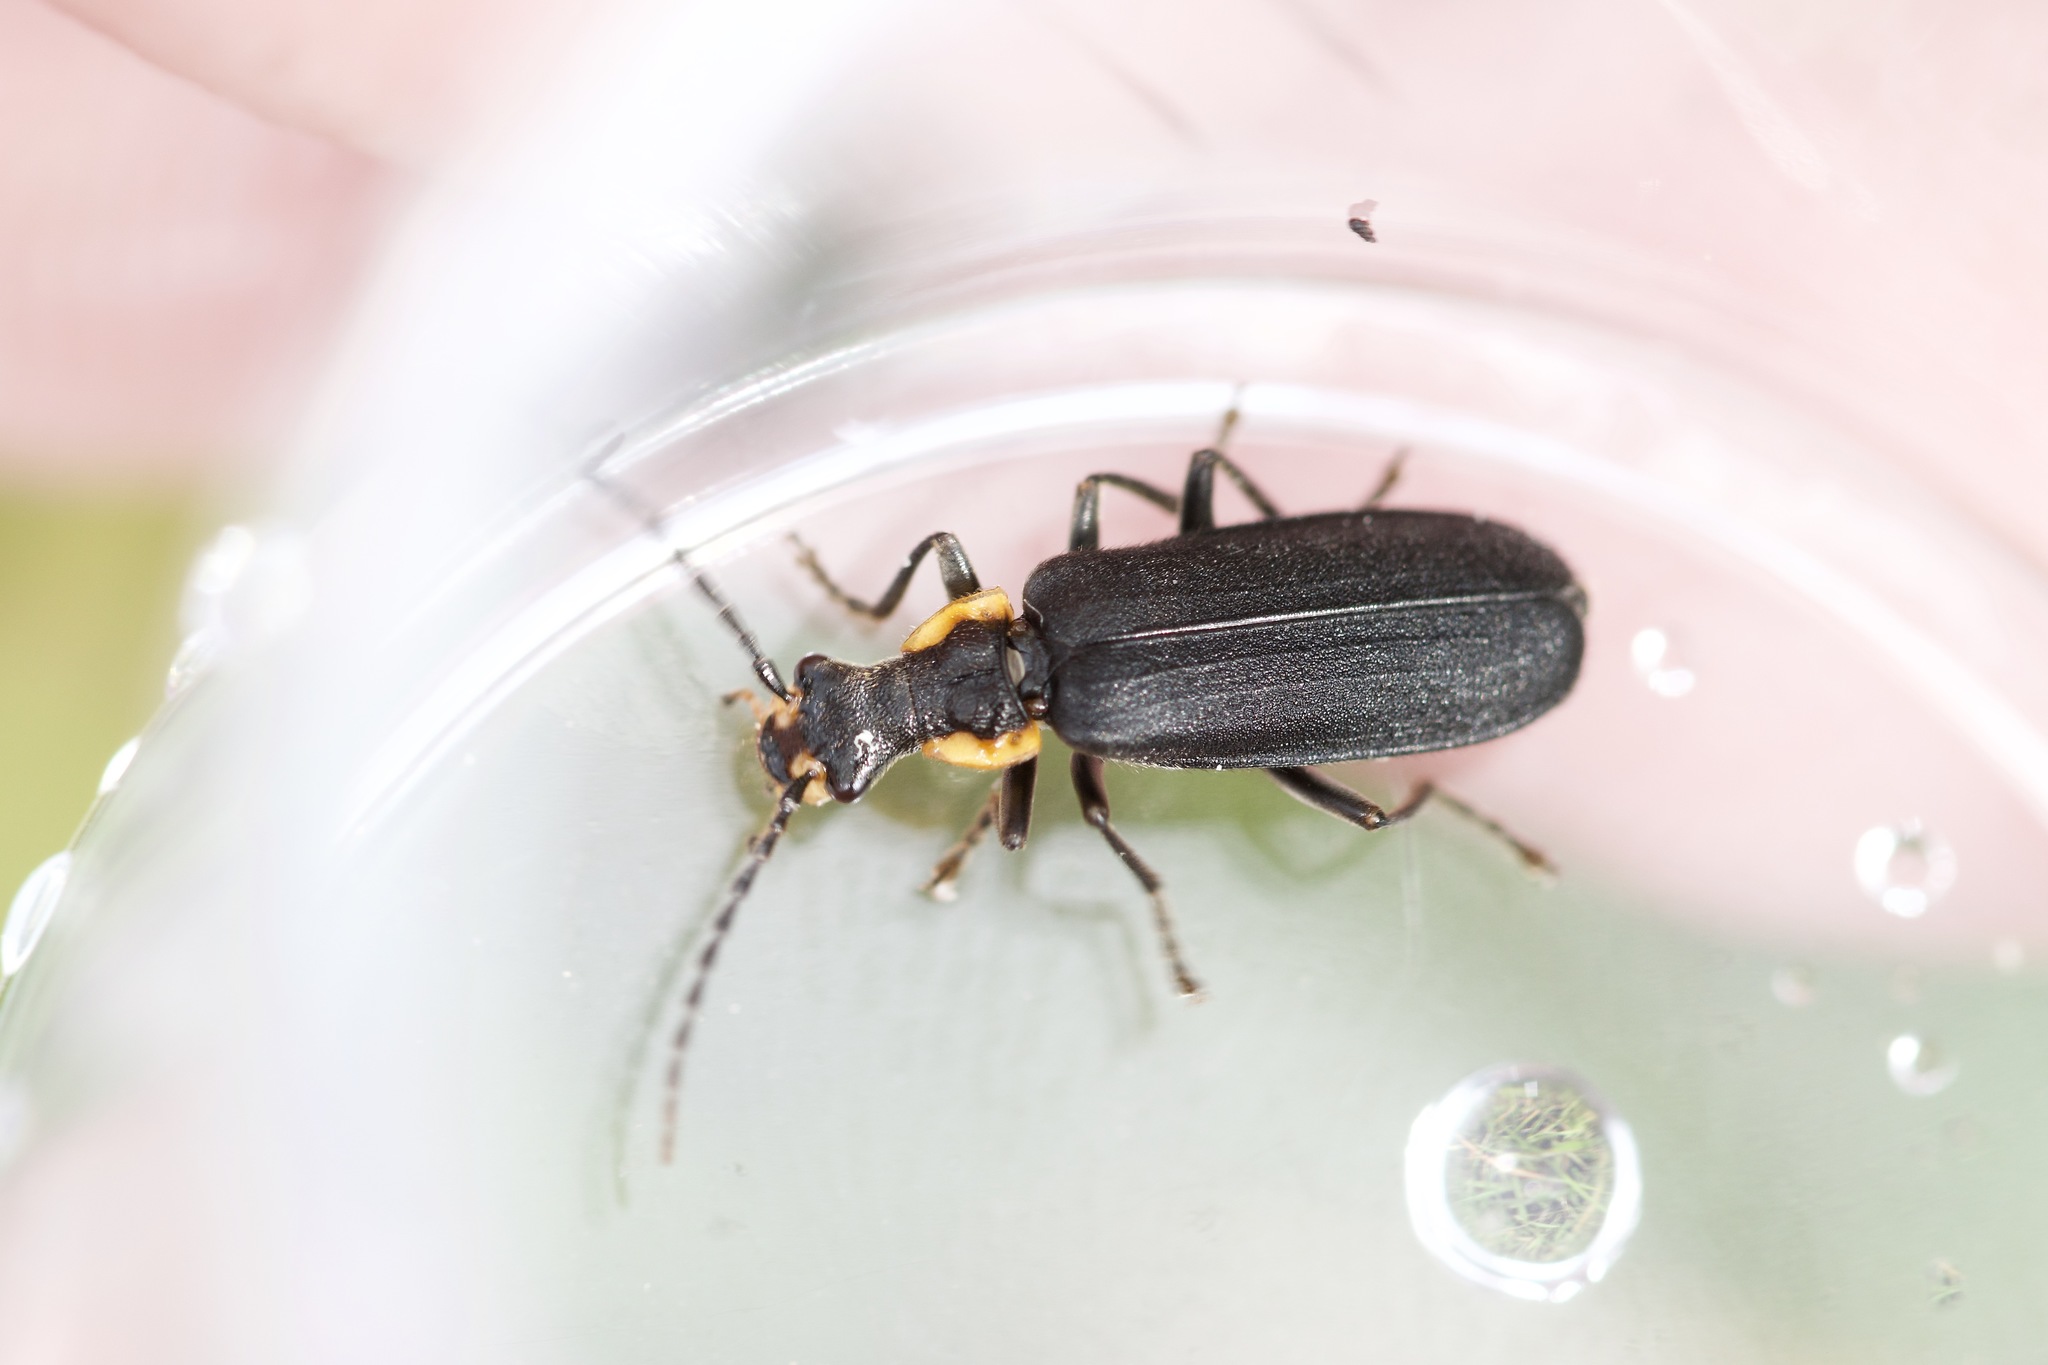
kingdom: Animalia
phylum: Arthropoda
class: Insecta
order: Coleoptera
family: Cantharidae
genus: Podabrus
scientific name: Podabrus rugosulus
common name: Wrinkled soldier beetle
